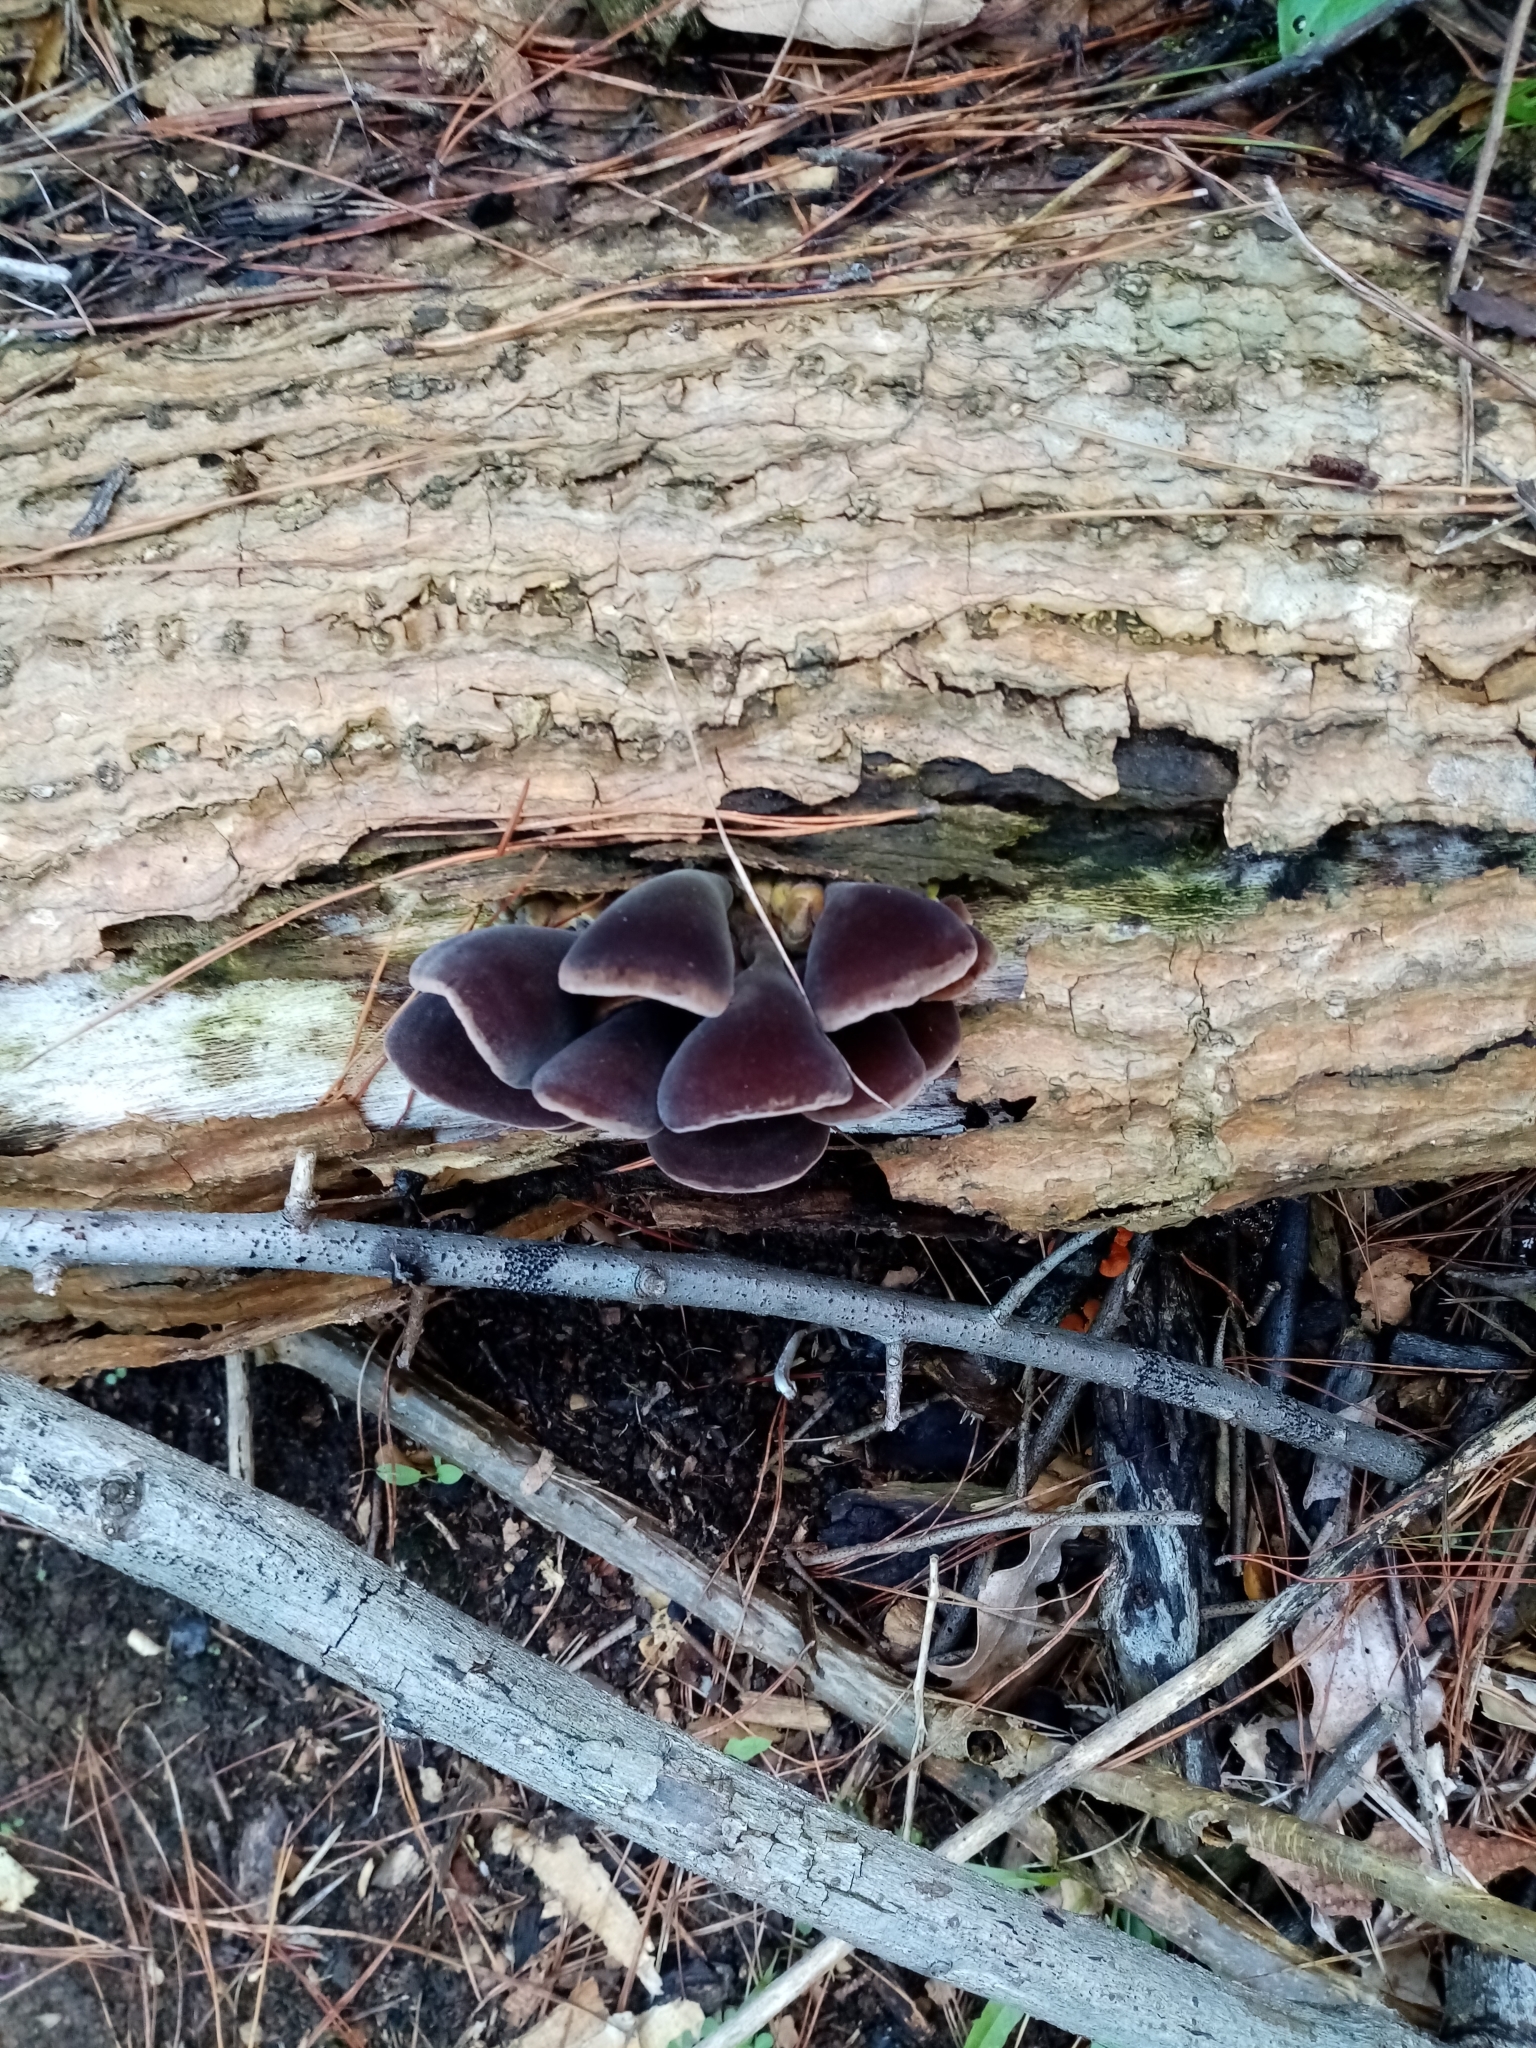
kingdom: Fungi
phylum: Basidiomycota
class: Agaricomycetes
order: Auriculariales
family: Auriculariaceae
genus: Auricularia
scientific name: Auricularia cornea
